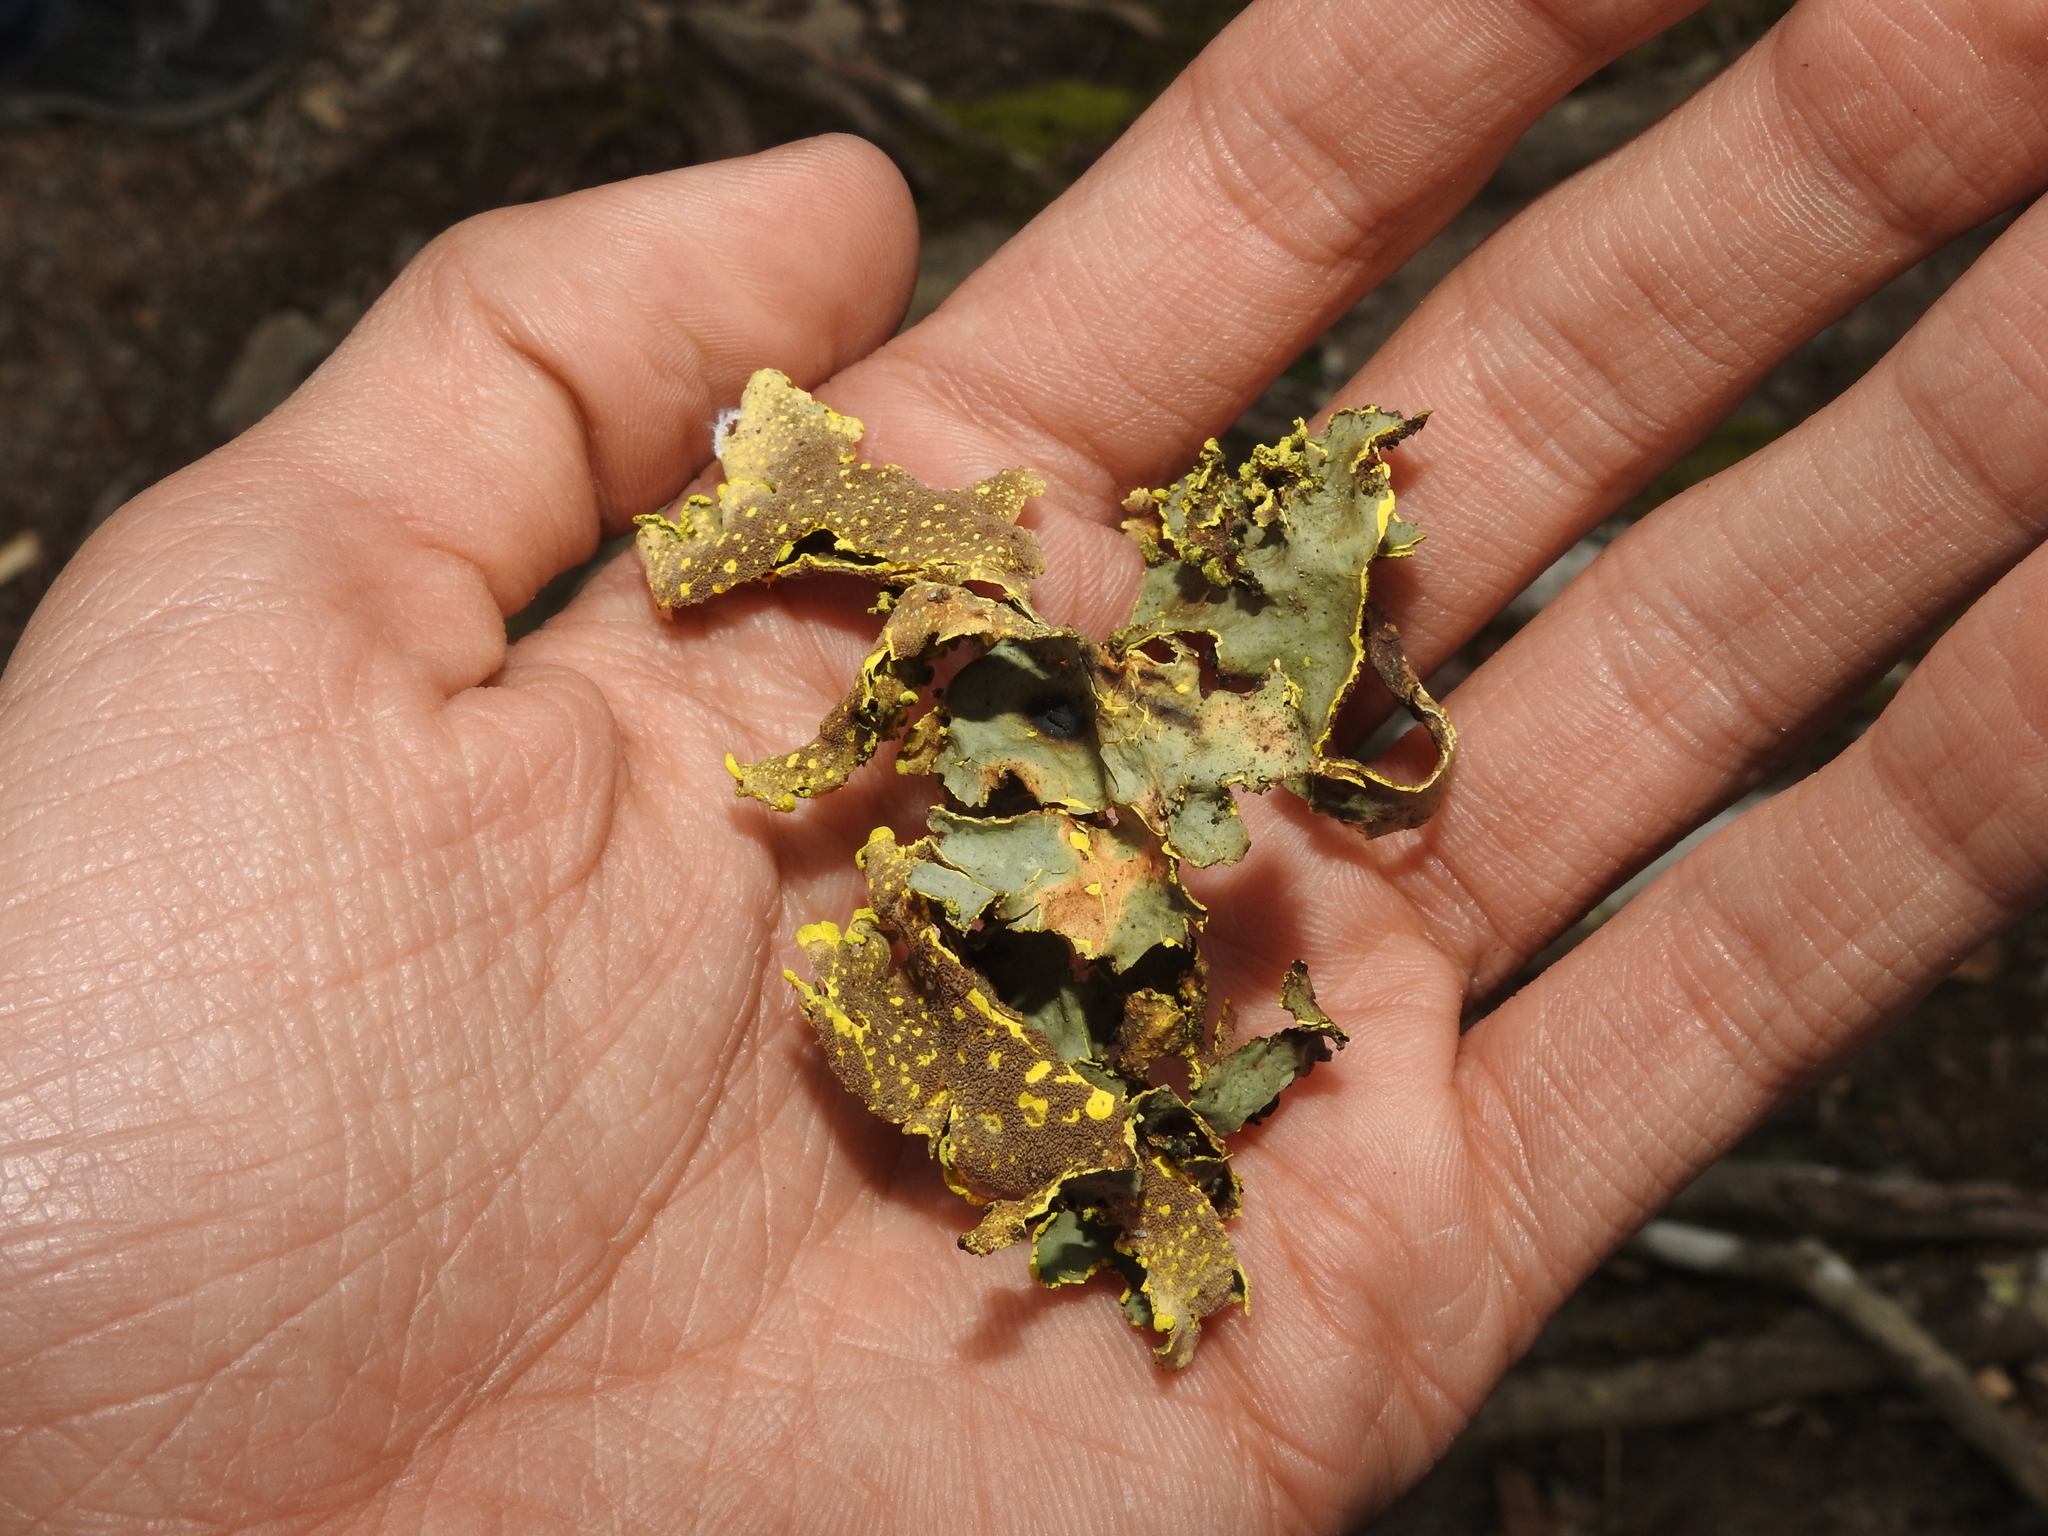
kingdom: Fungi
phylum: Ascomycota
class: Lecanoromycetes
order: Peltigerales
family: Lobariaceae
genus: Pseudocyphellaria
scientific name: Pseudocyphellaria aurata
